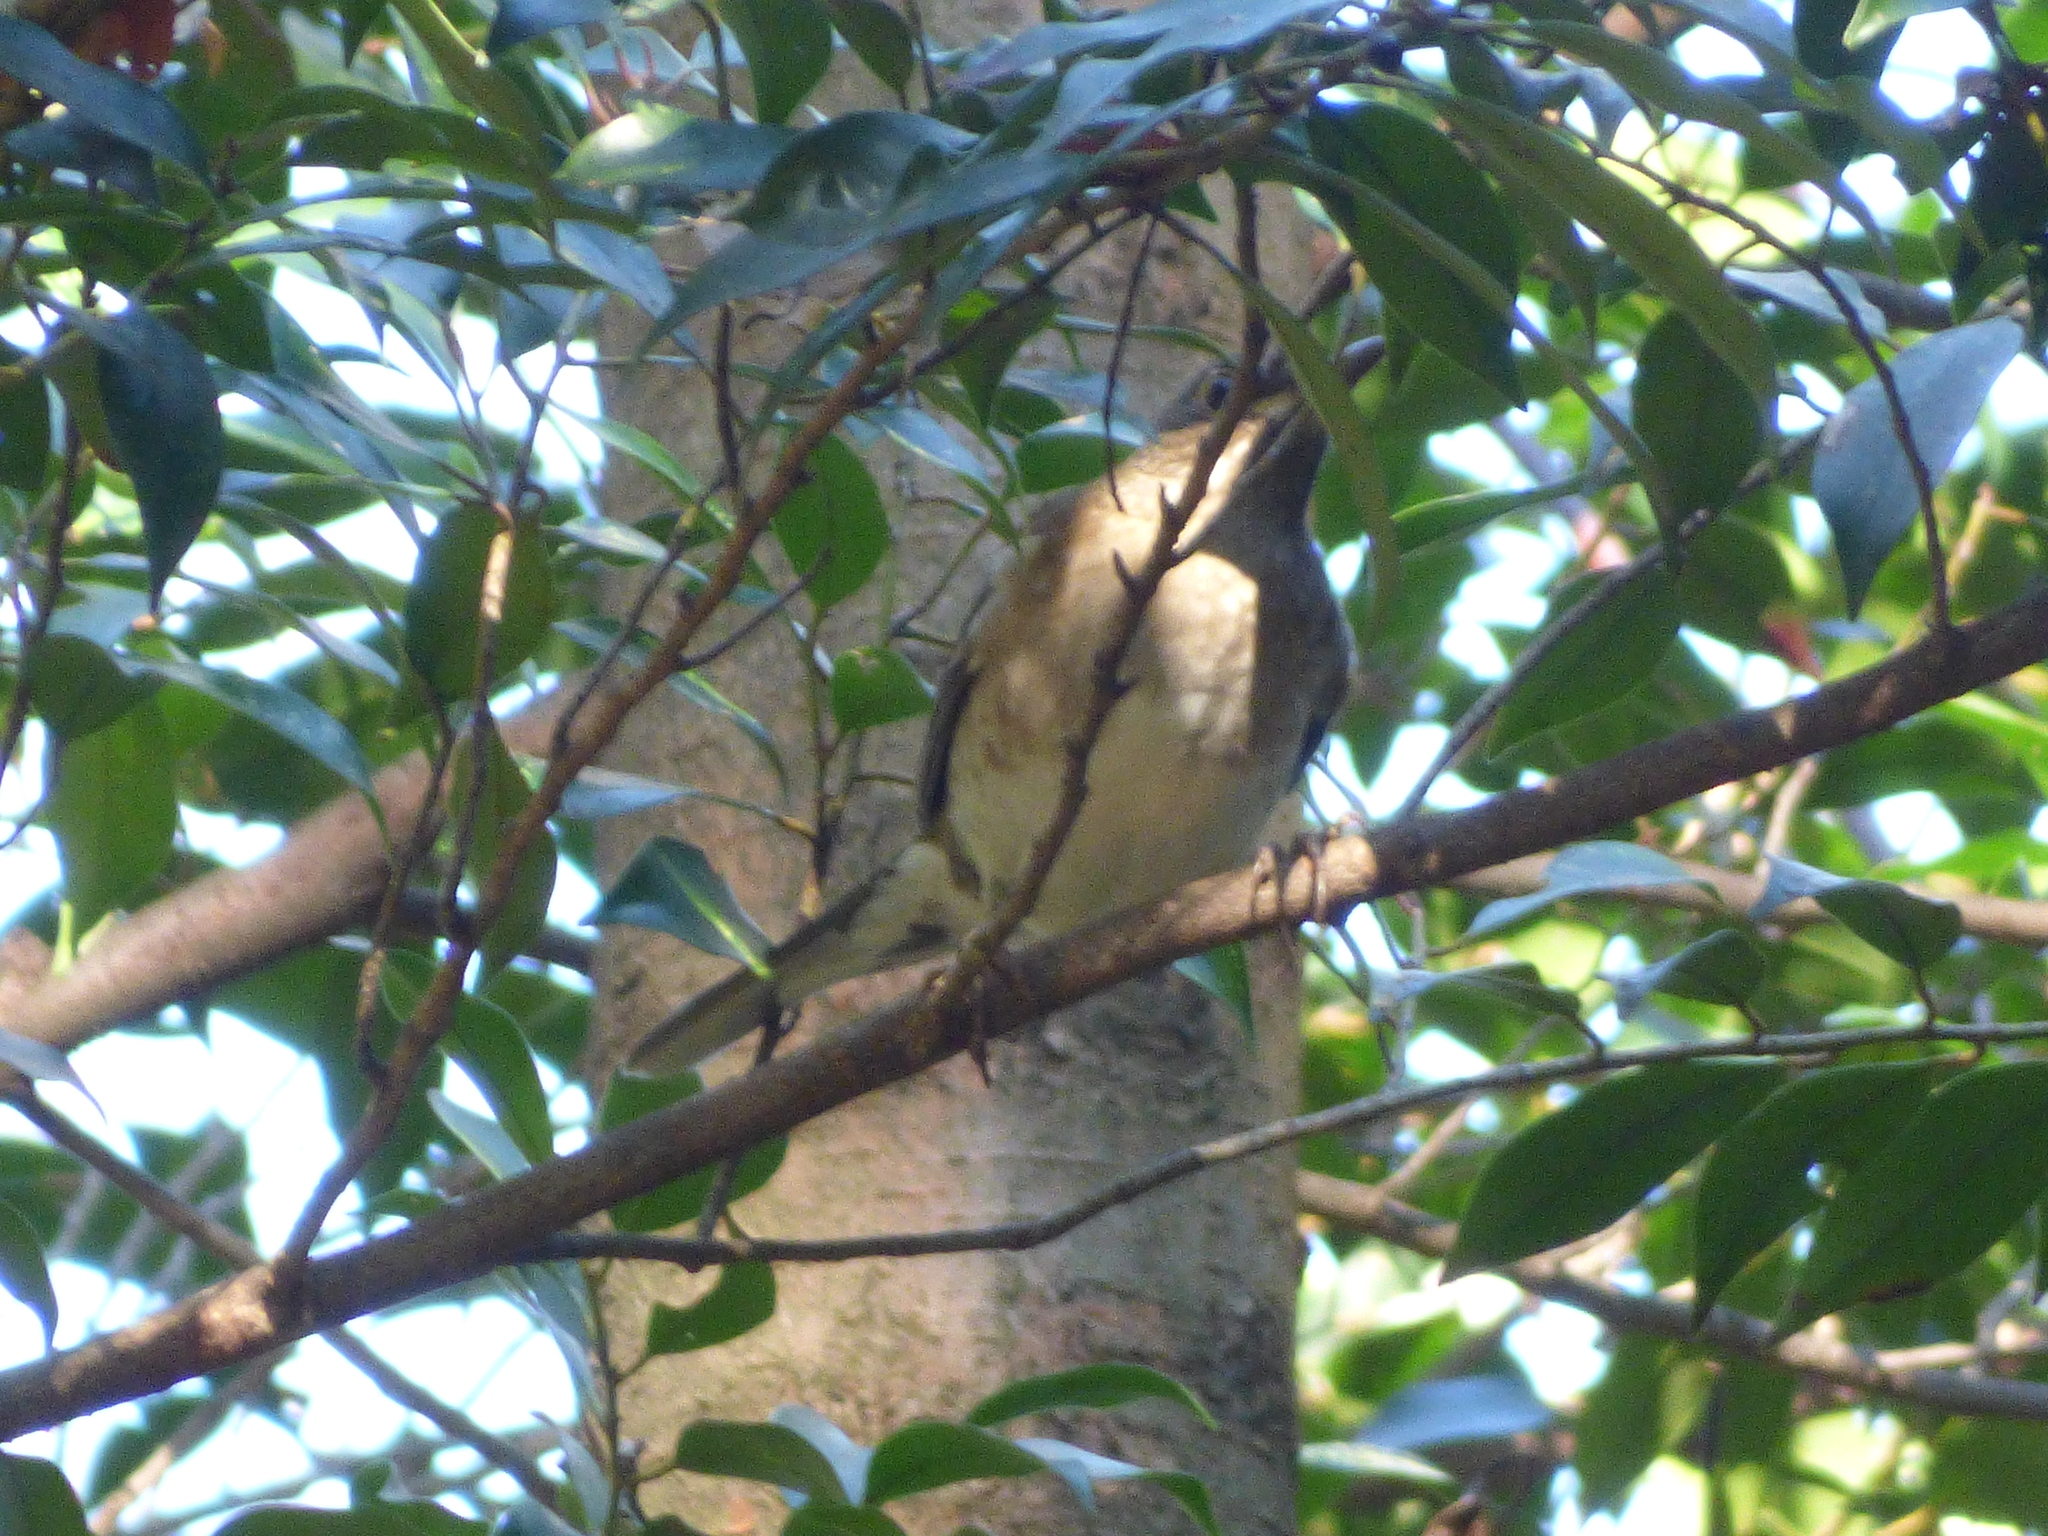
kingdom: Animalia
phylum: Chordata
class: Aves
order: Passeriformes
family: Turdidae
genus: Turdus
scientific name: Turdus pallidus
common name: Pale thrush
